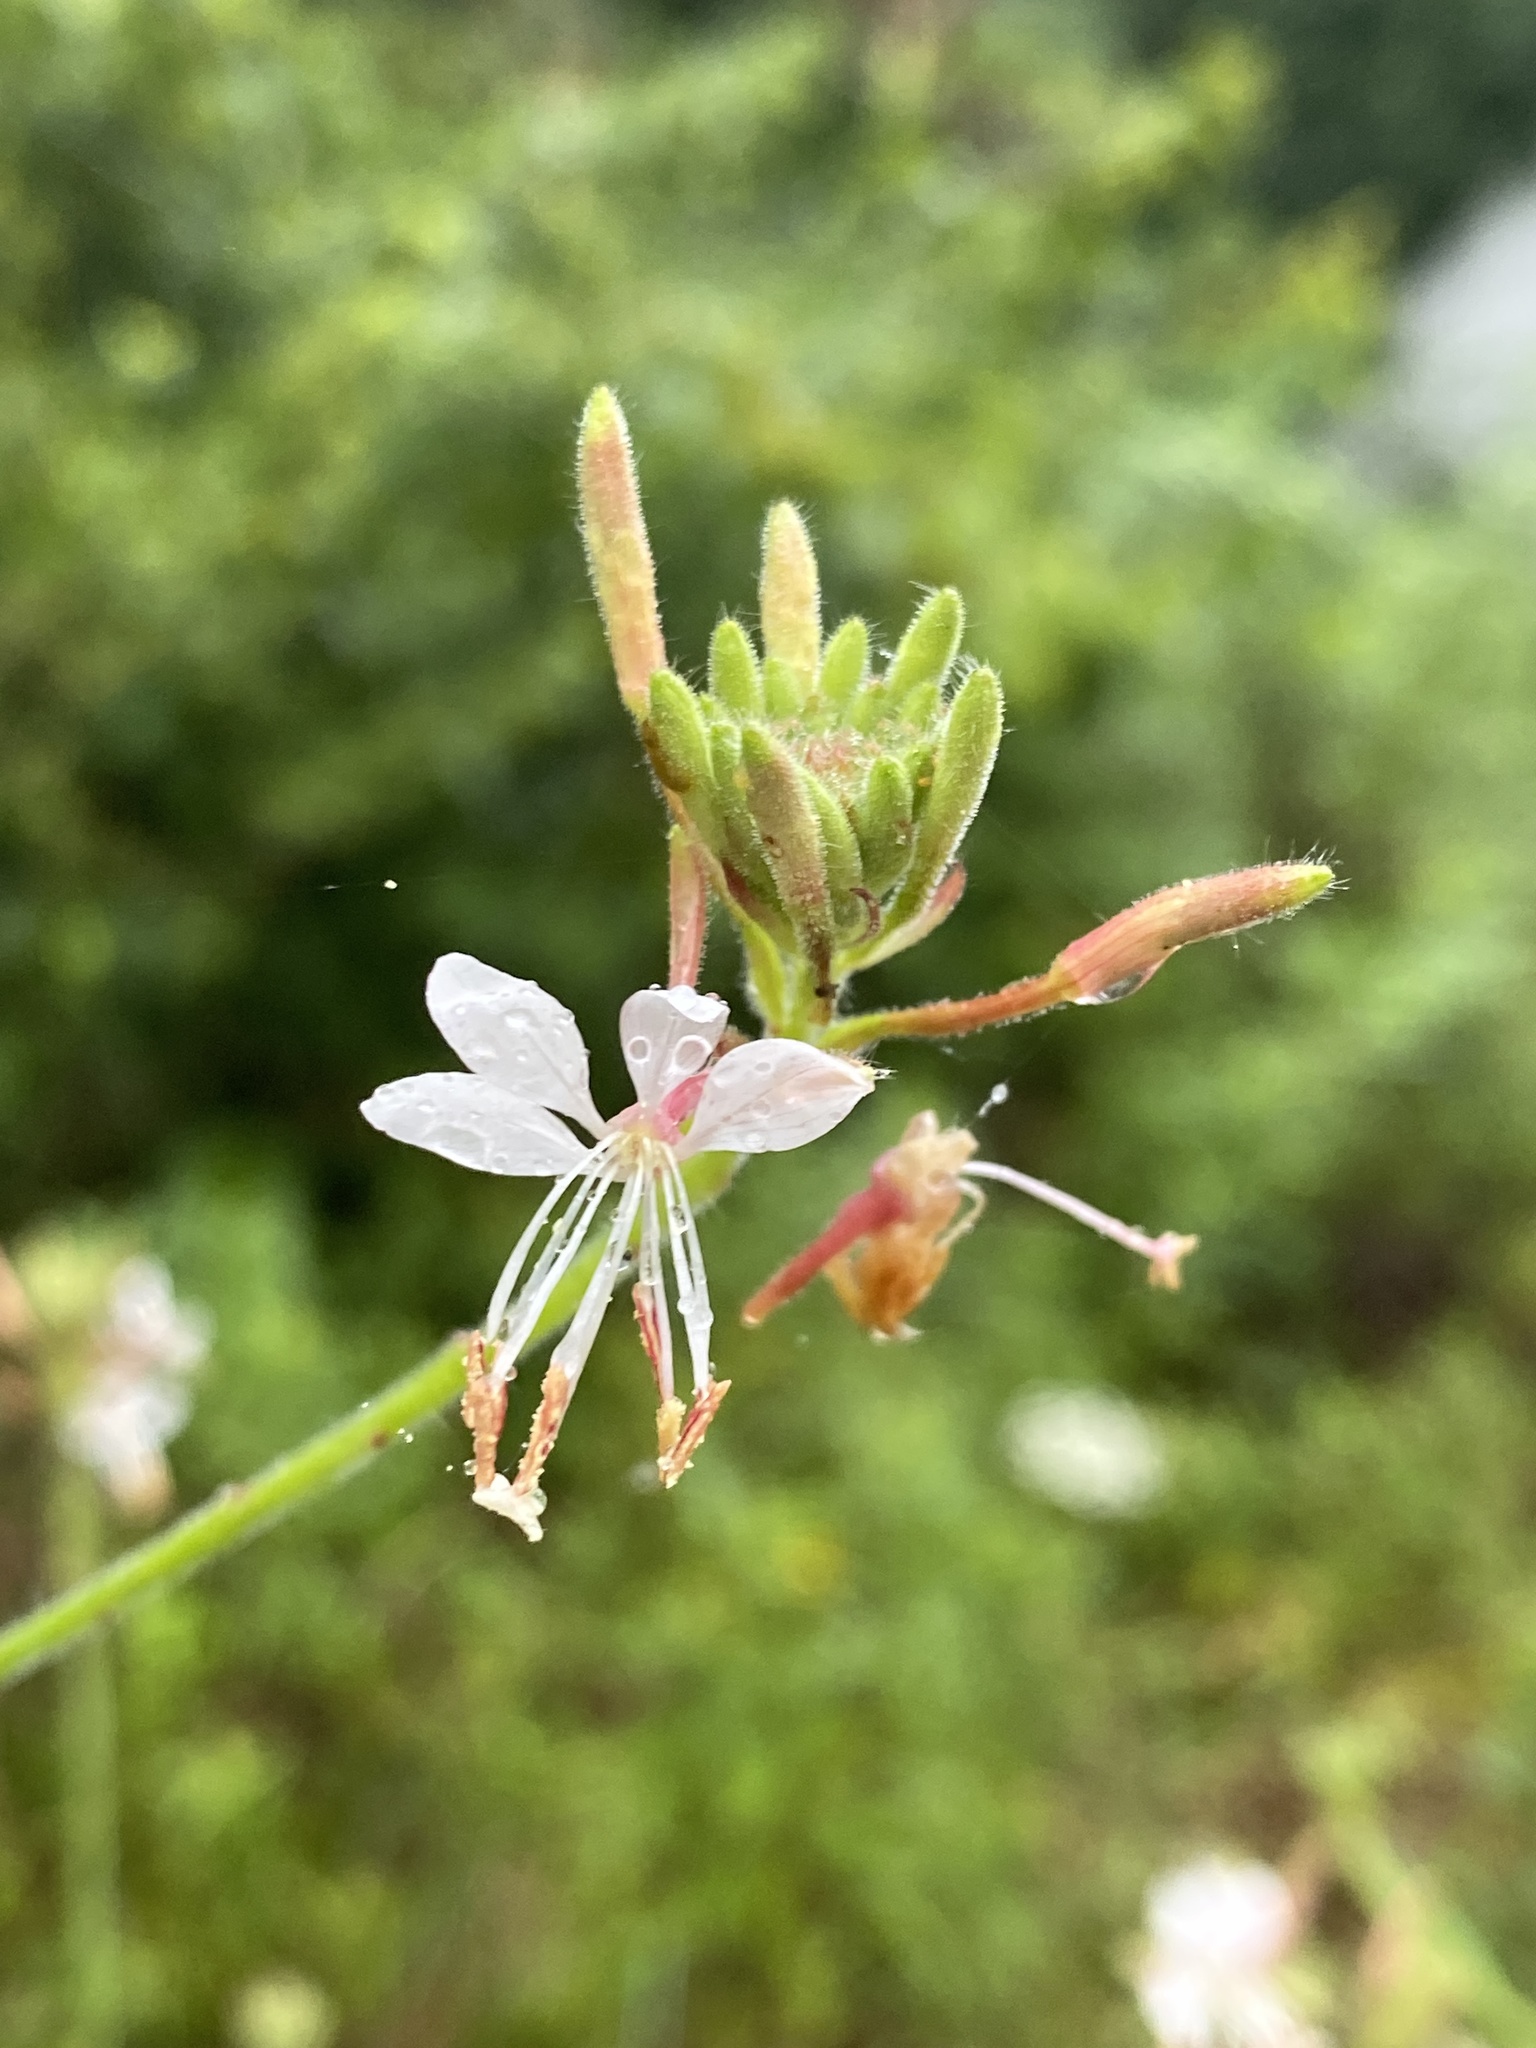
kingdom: Plantae
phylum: Tracheophyta
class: Magnoliopsida
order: Myrtales
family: Onagraceae
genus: Oenothera
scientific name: Oenothera gaura
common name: Biennial beeblossom
